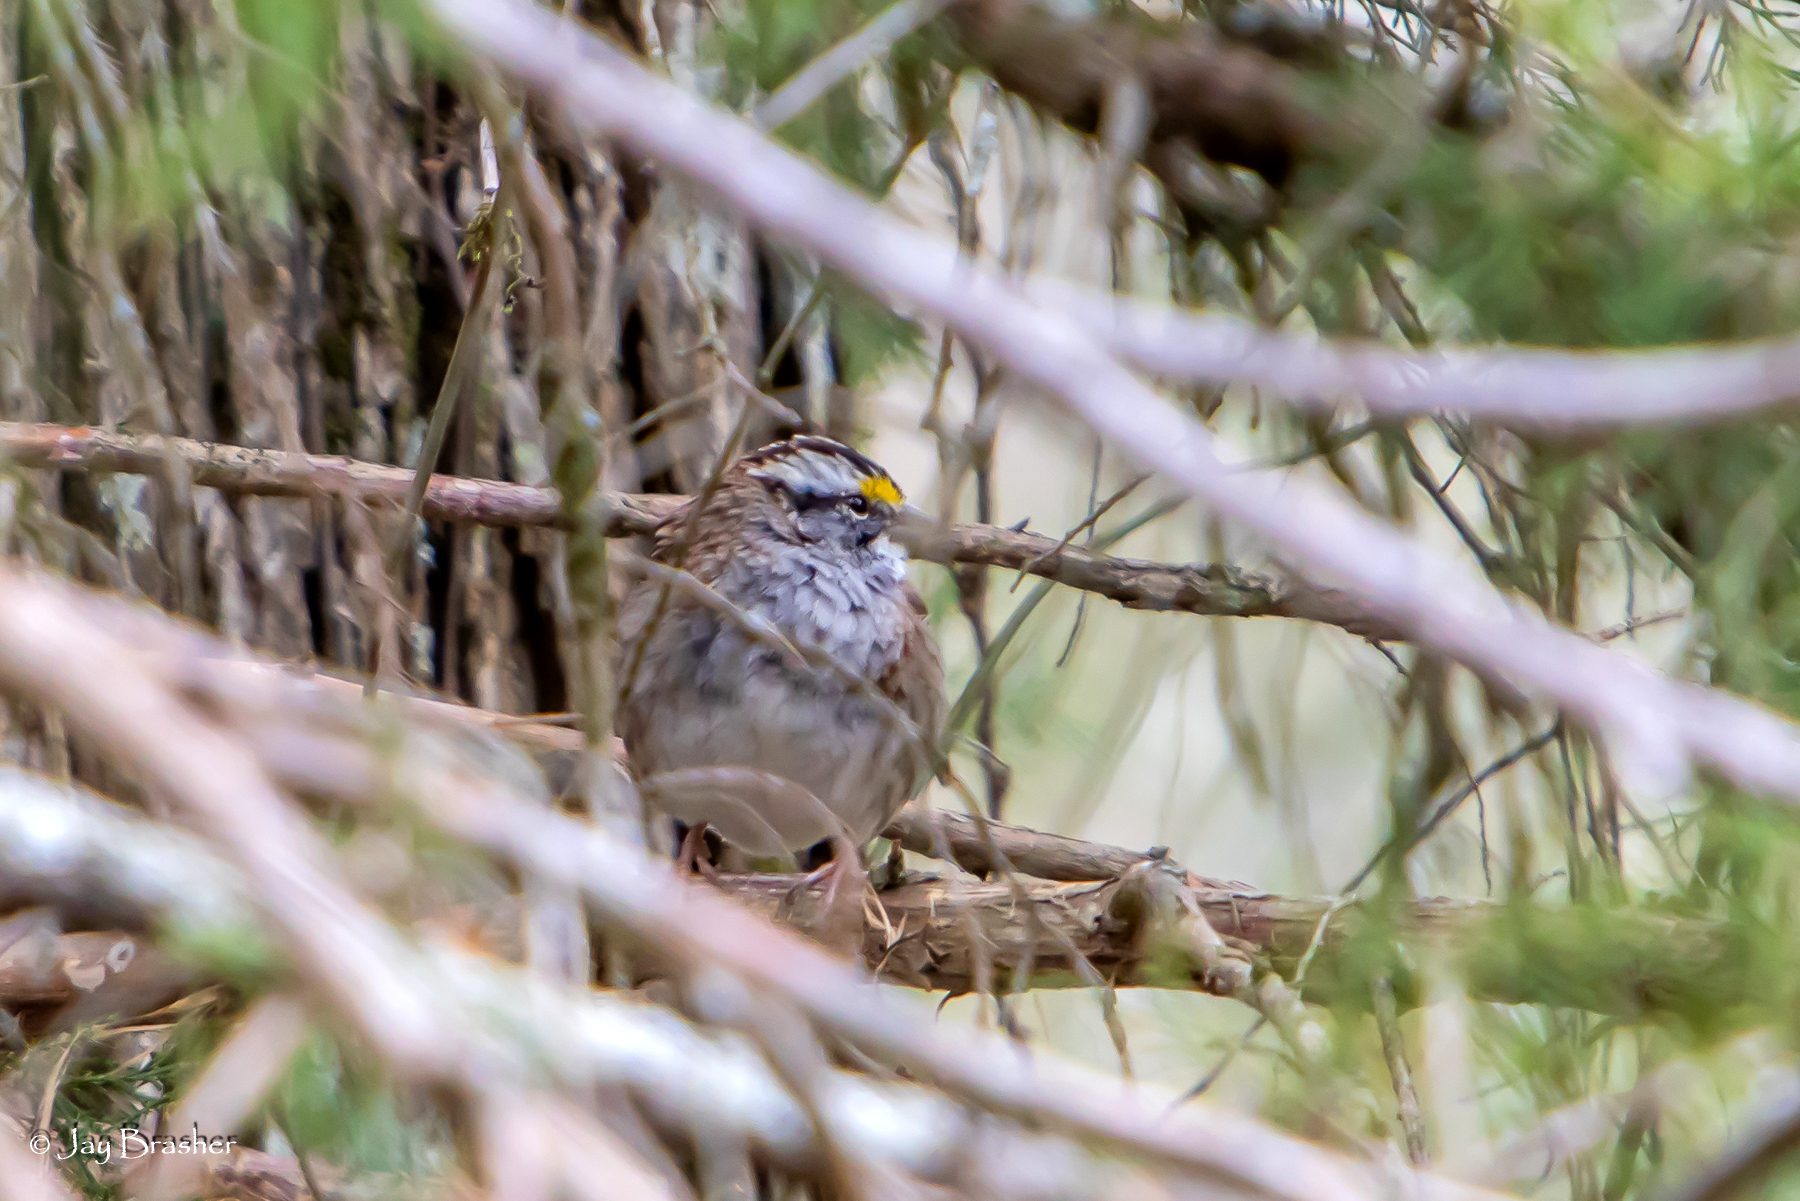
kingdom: Animalia
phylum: Chordata
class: Aves
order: Passeriformes
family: Passerellidae
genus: Zonotrichia
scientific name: Zonotrichia albicollis
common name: White-throated sparrow
